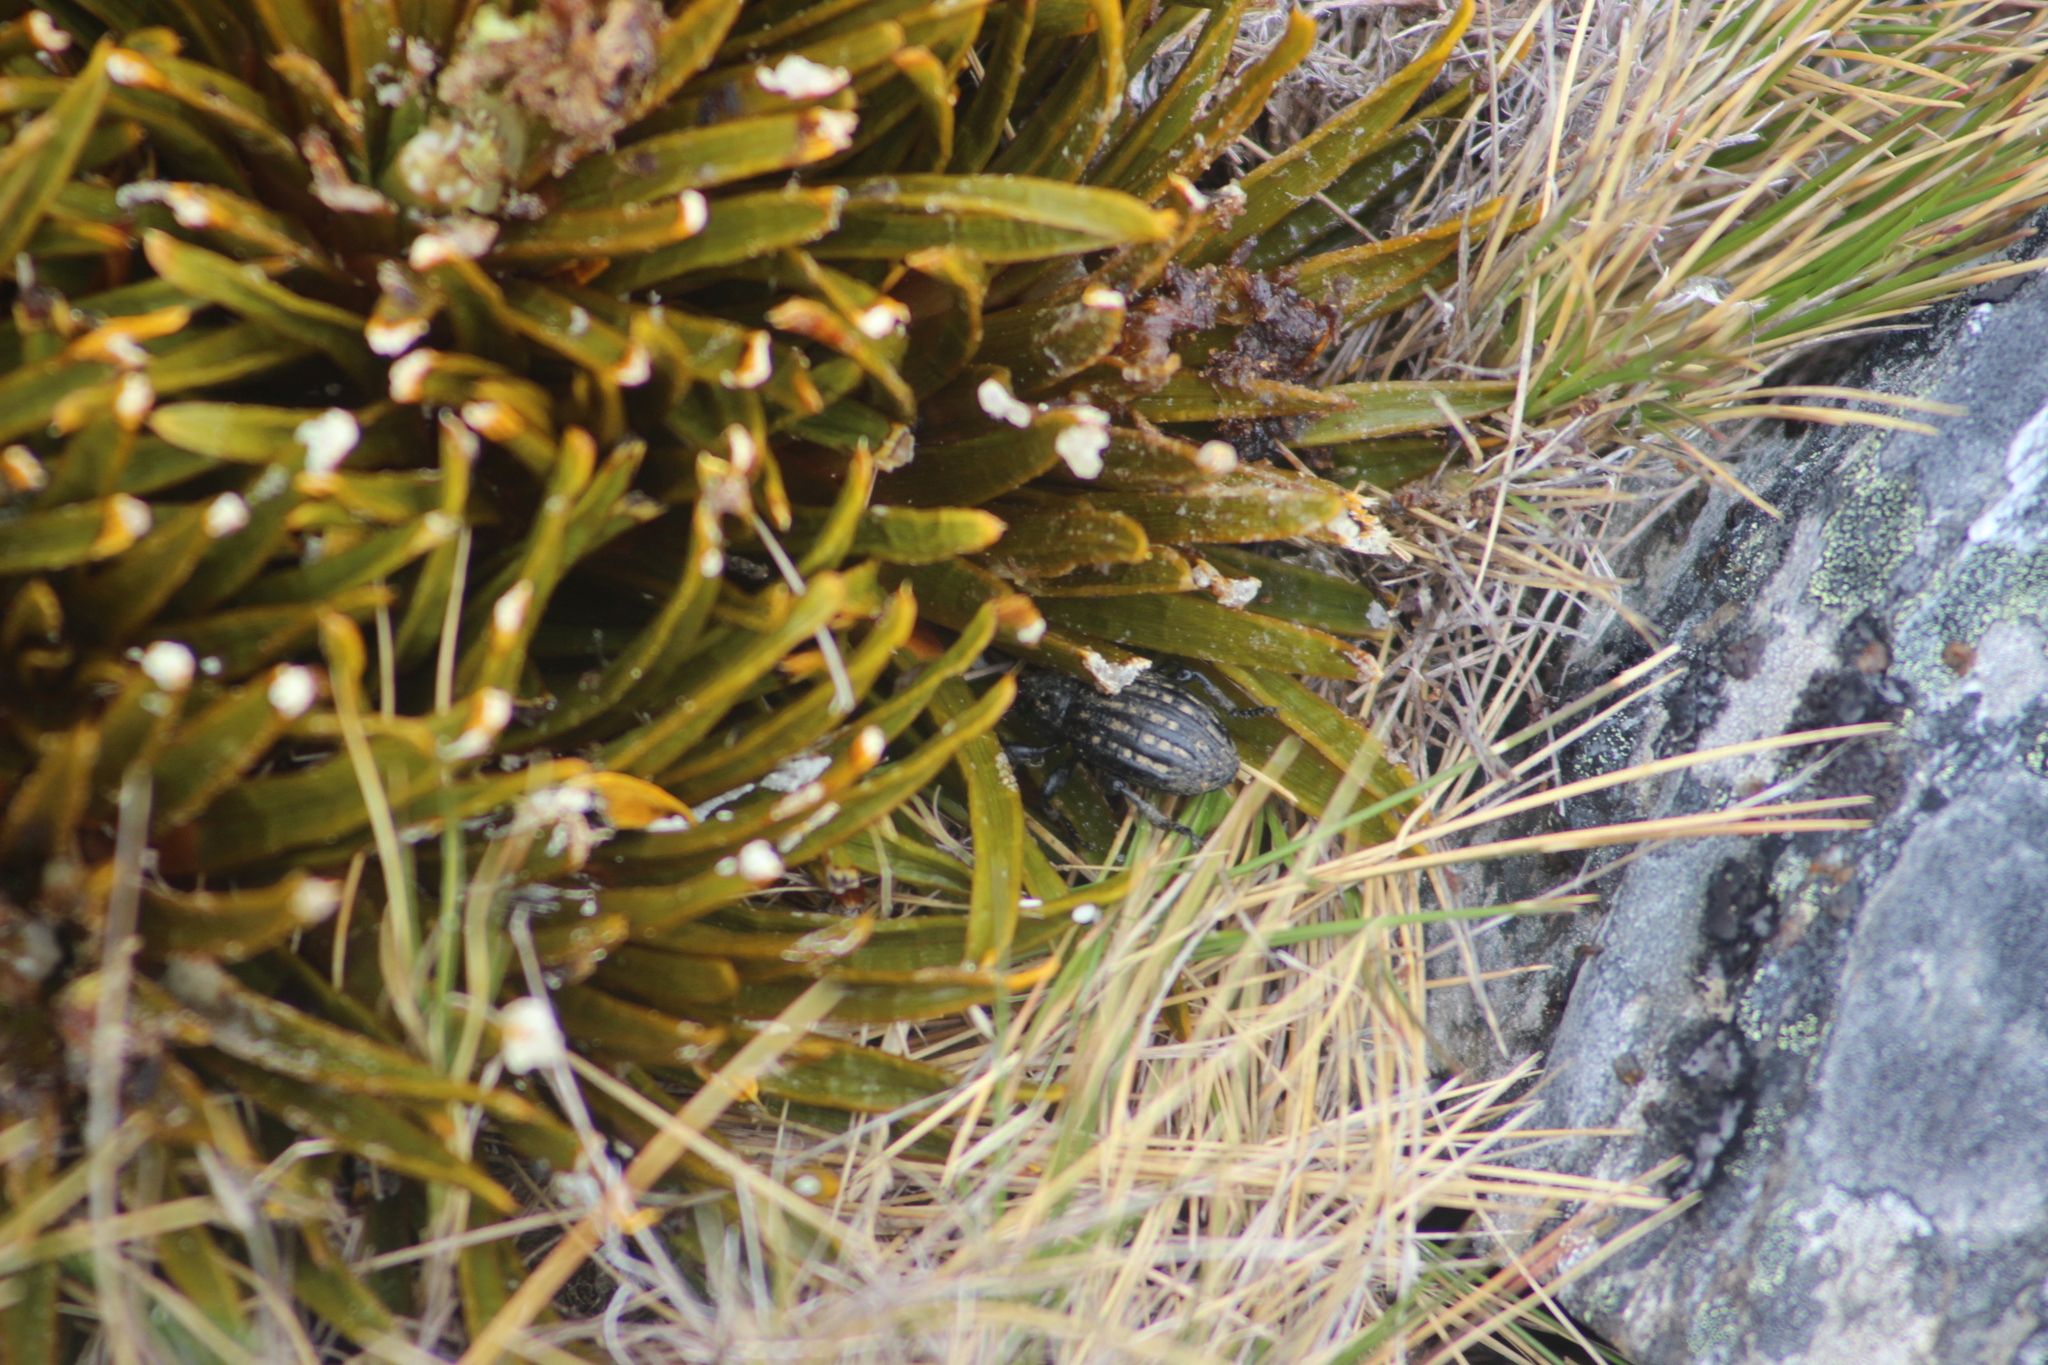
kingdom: Animalia
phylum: Arthropoda
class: Insecta
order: Coleoptera
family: Curculionidae
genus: Lyperobius
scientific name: Lyperobius hudsoni
